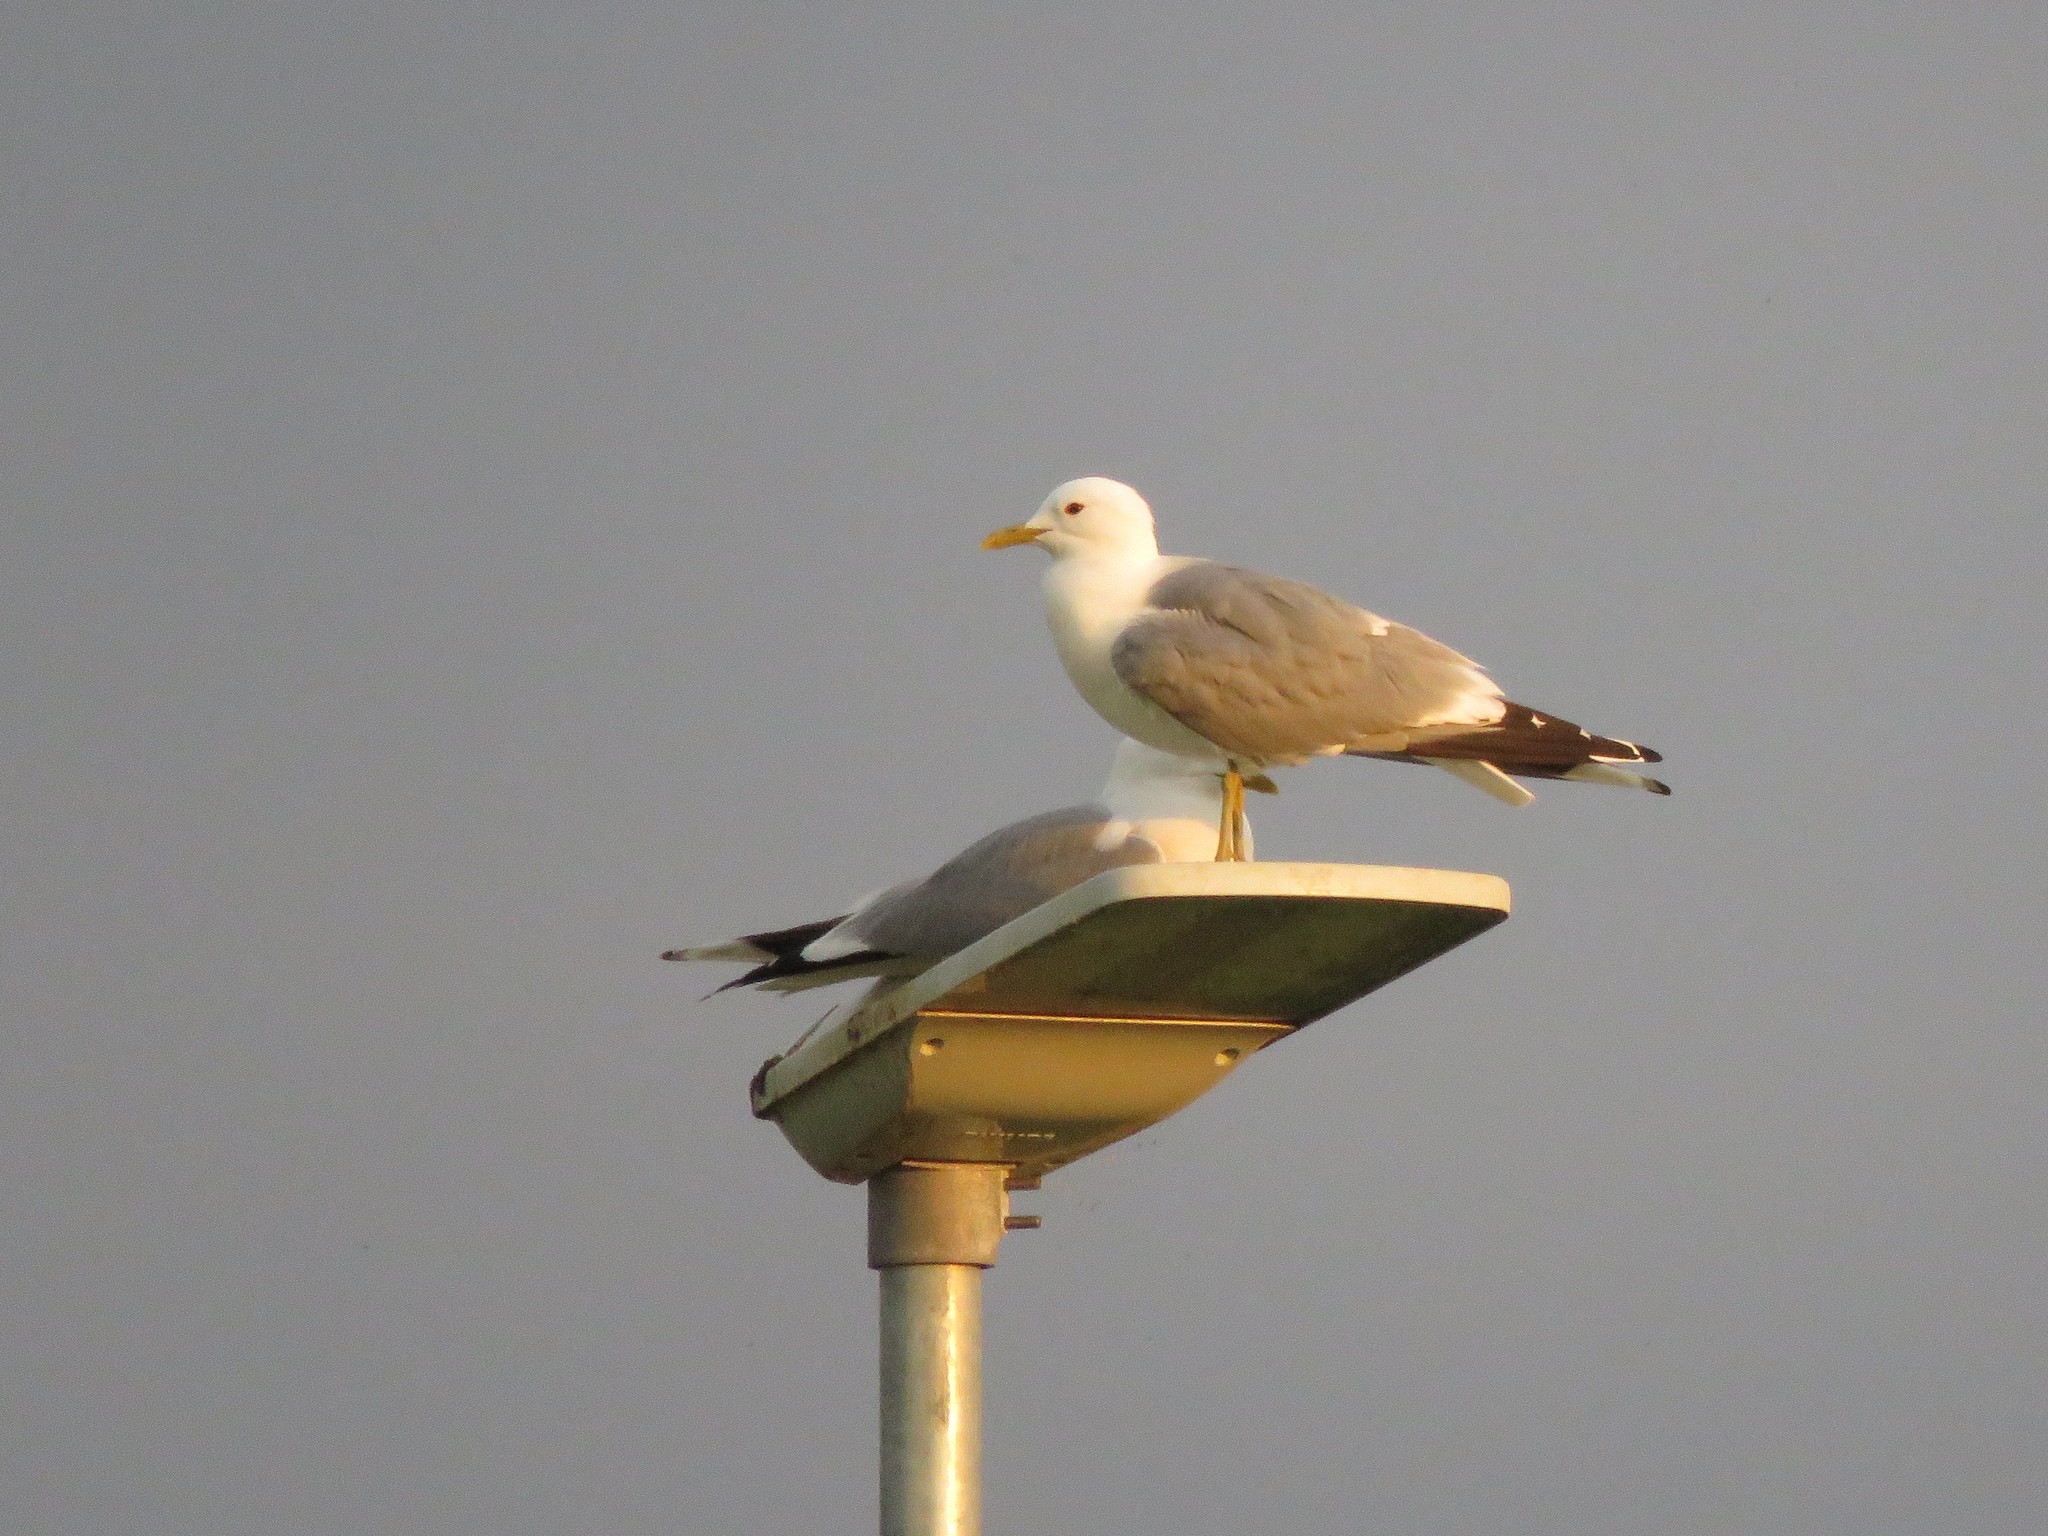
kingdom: Animalia
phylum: Chordata
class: Aves
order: Charadriiformes
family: Laridae
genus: Larus
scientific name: Larus canus
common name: Mew gull
